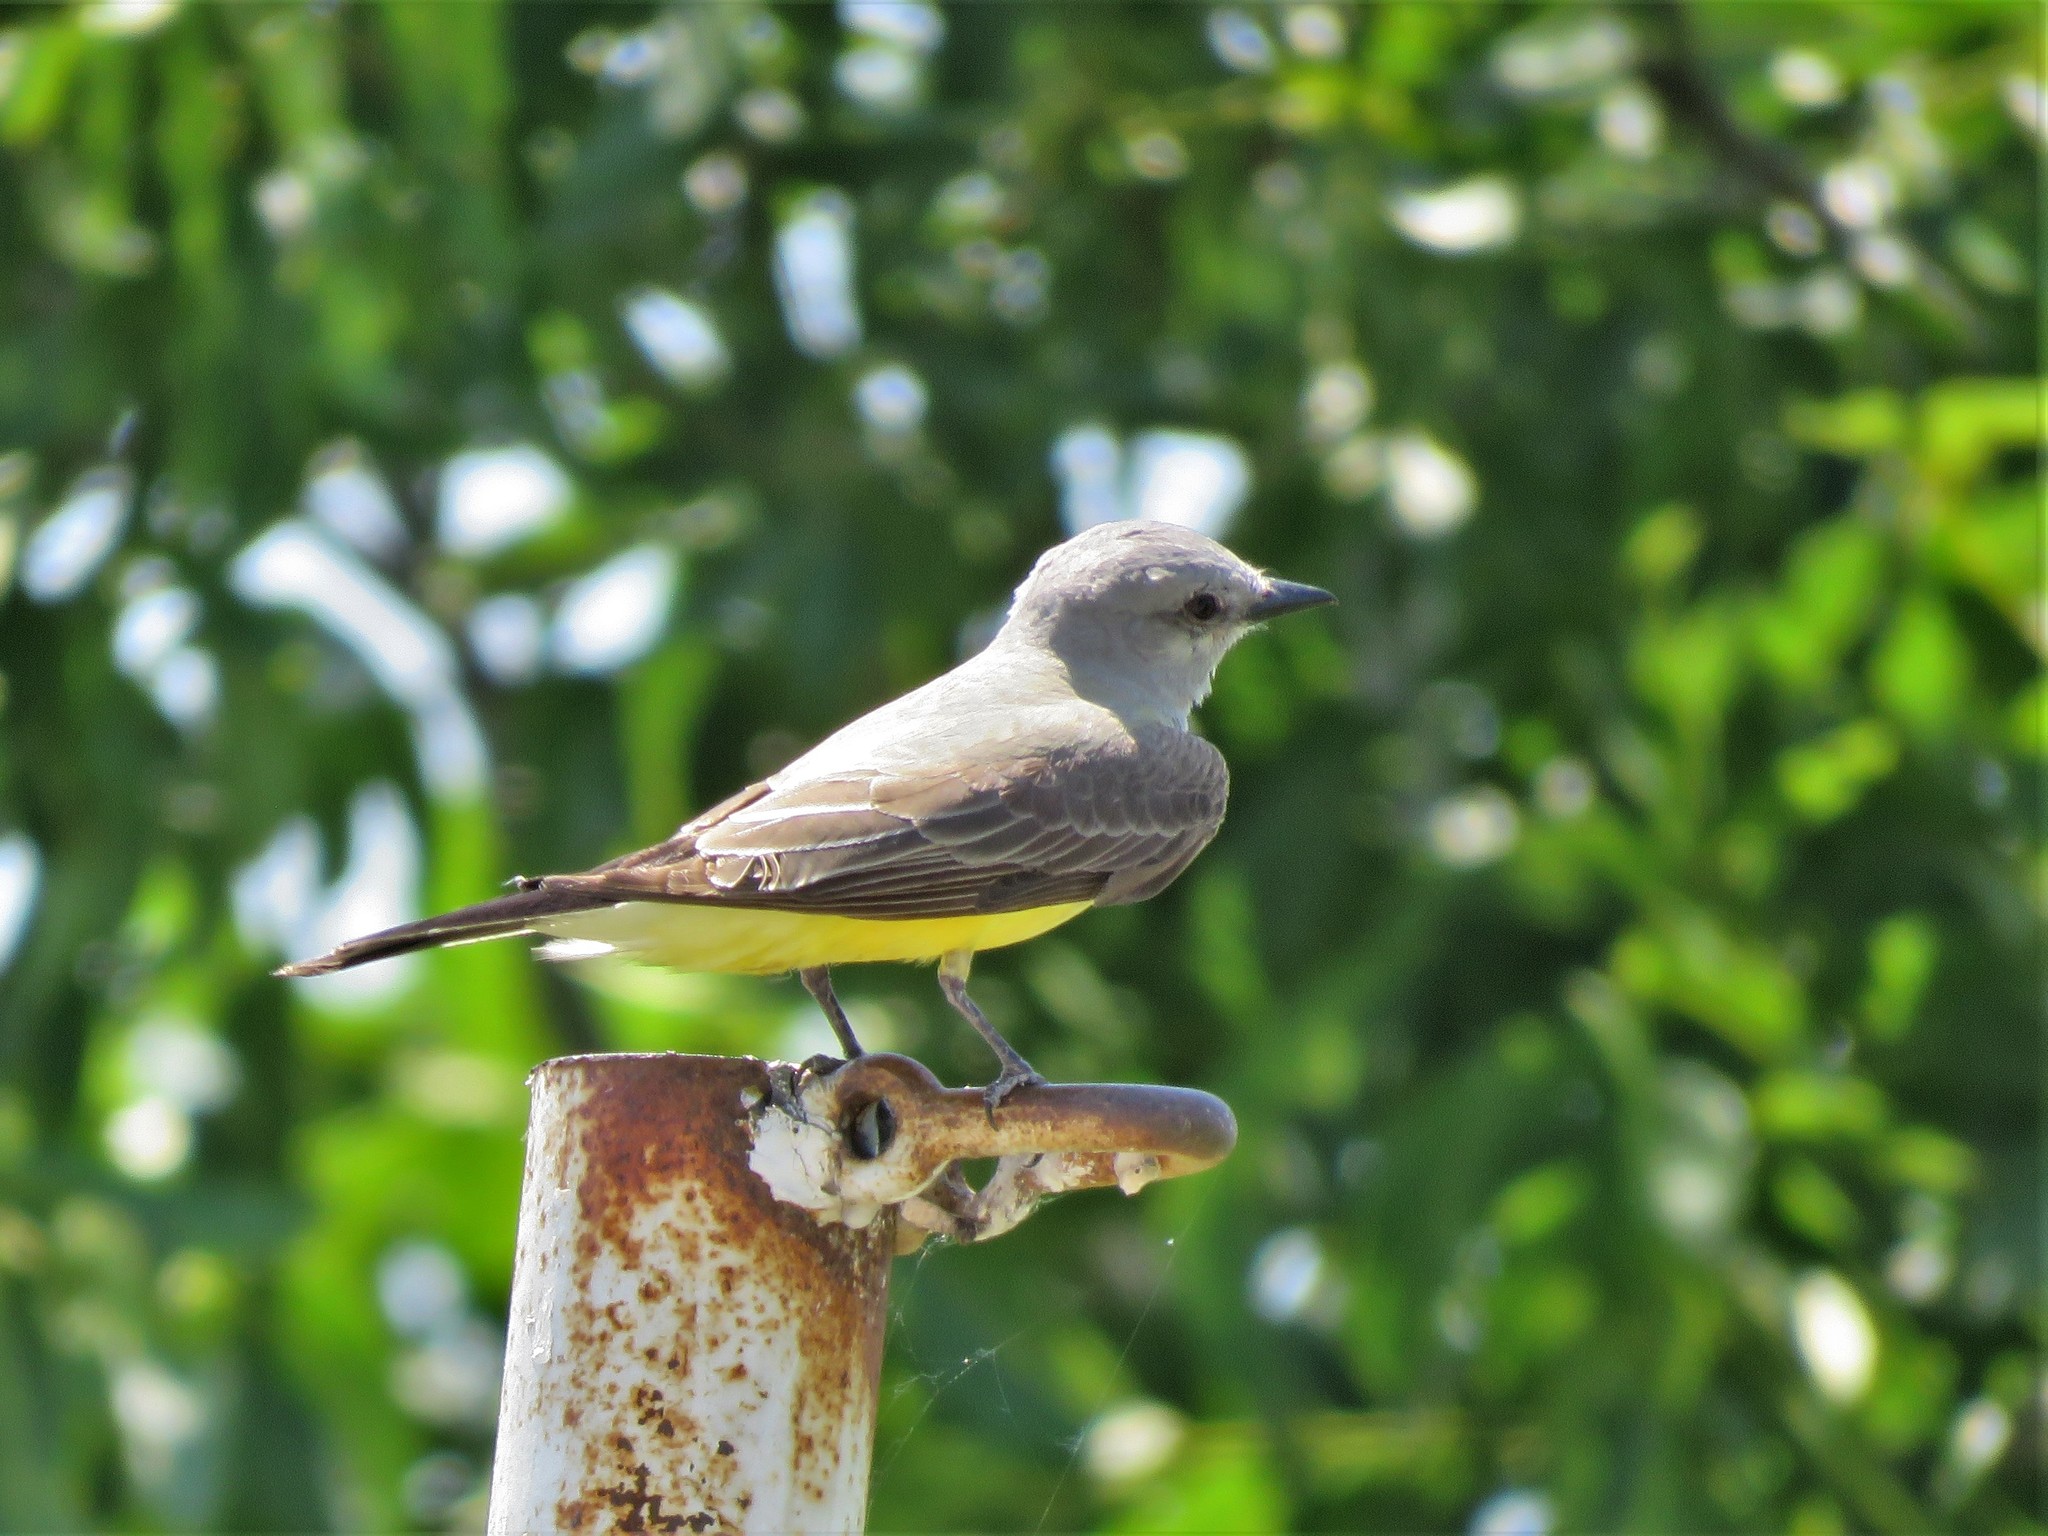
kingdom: Animalia
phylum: Chordata
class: Aves
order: Passeriformes
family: Tyrannidae
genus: Tyrannus
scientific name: Tyrannus verticalis
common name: Western kingbird
